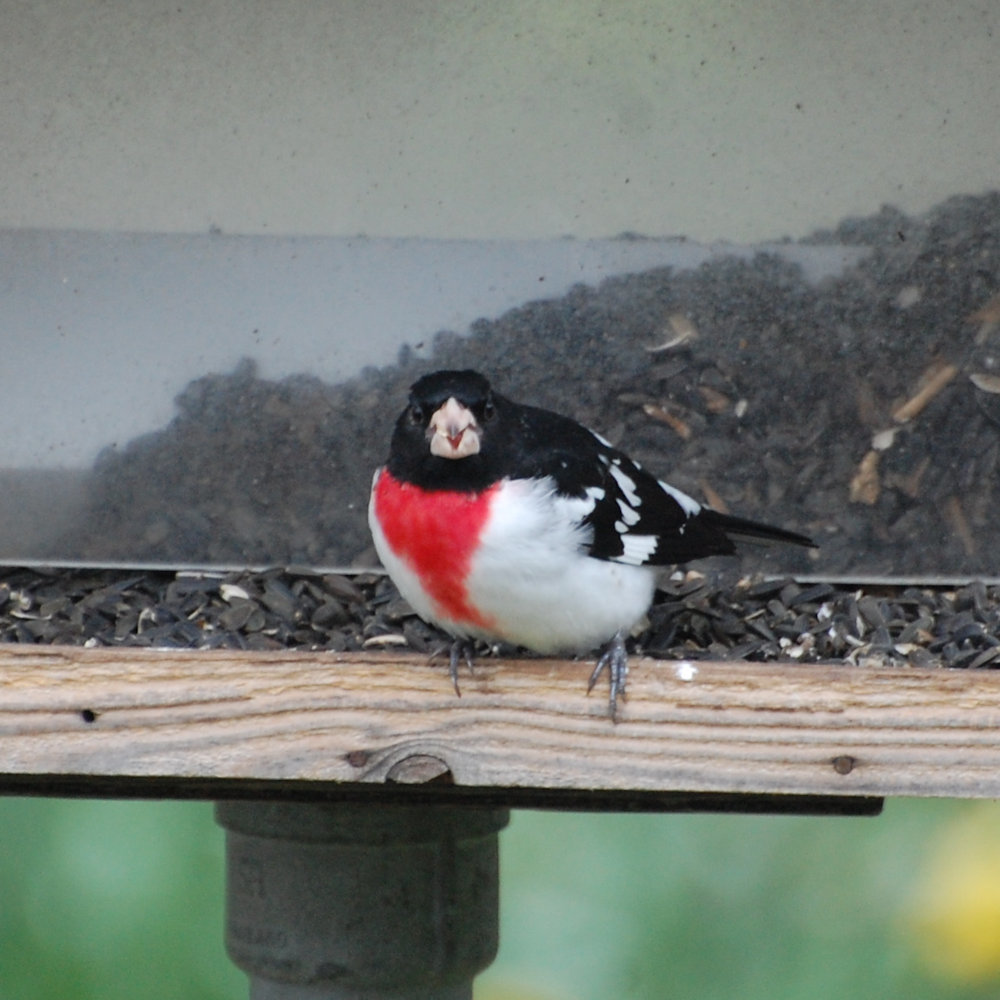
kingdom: Animalia
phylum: Chordata
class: Aves
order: Passeriformes
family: Cardinalidae
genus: Pheucticus
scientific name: Pheucticus ludovicianus
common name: Rose-breasted grosbeak
